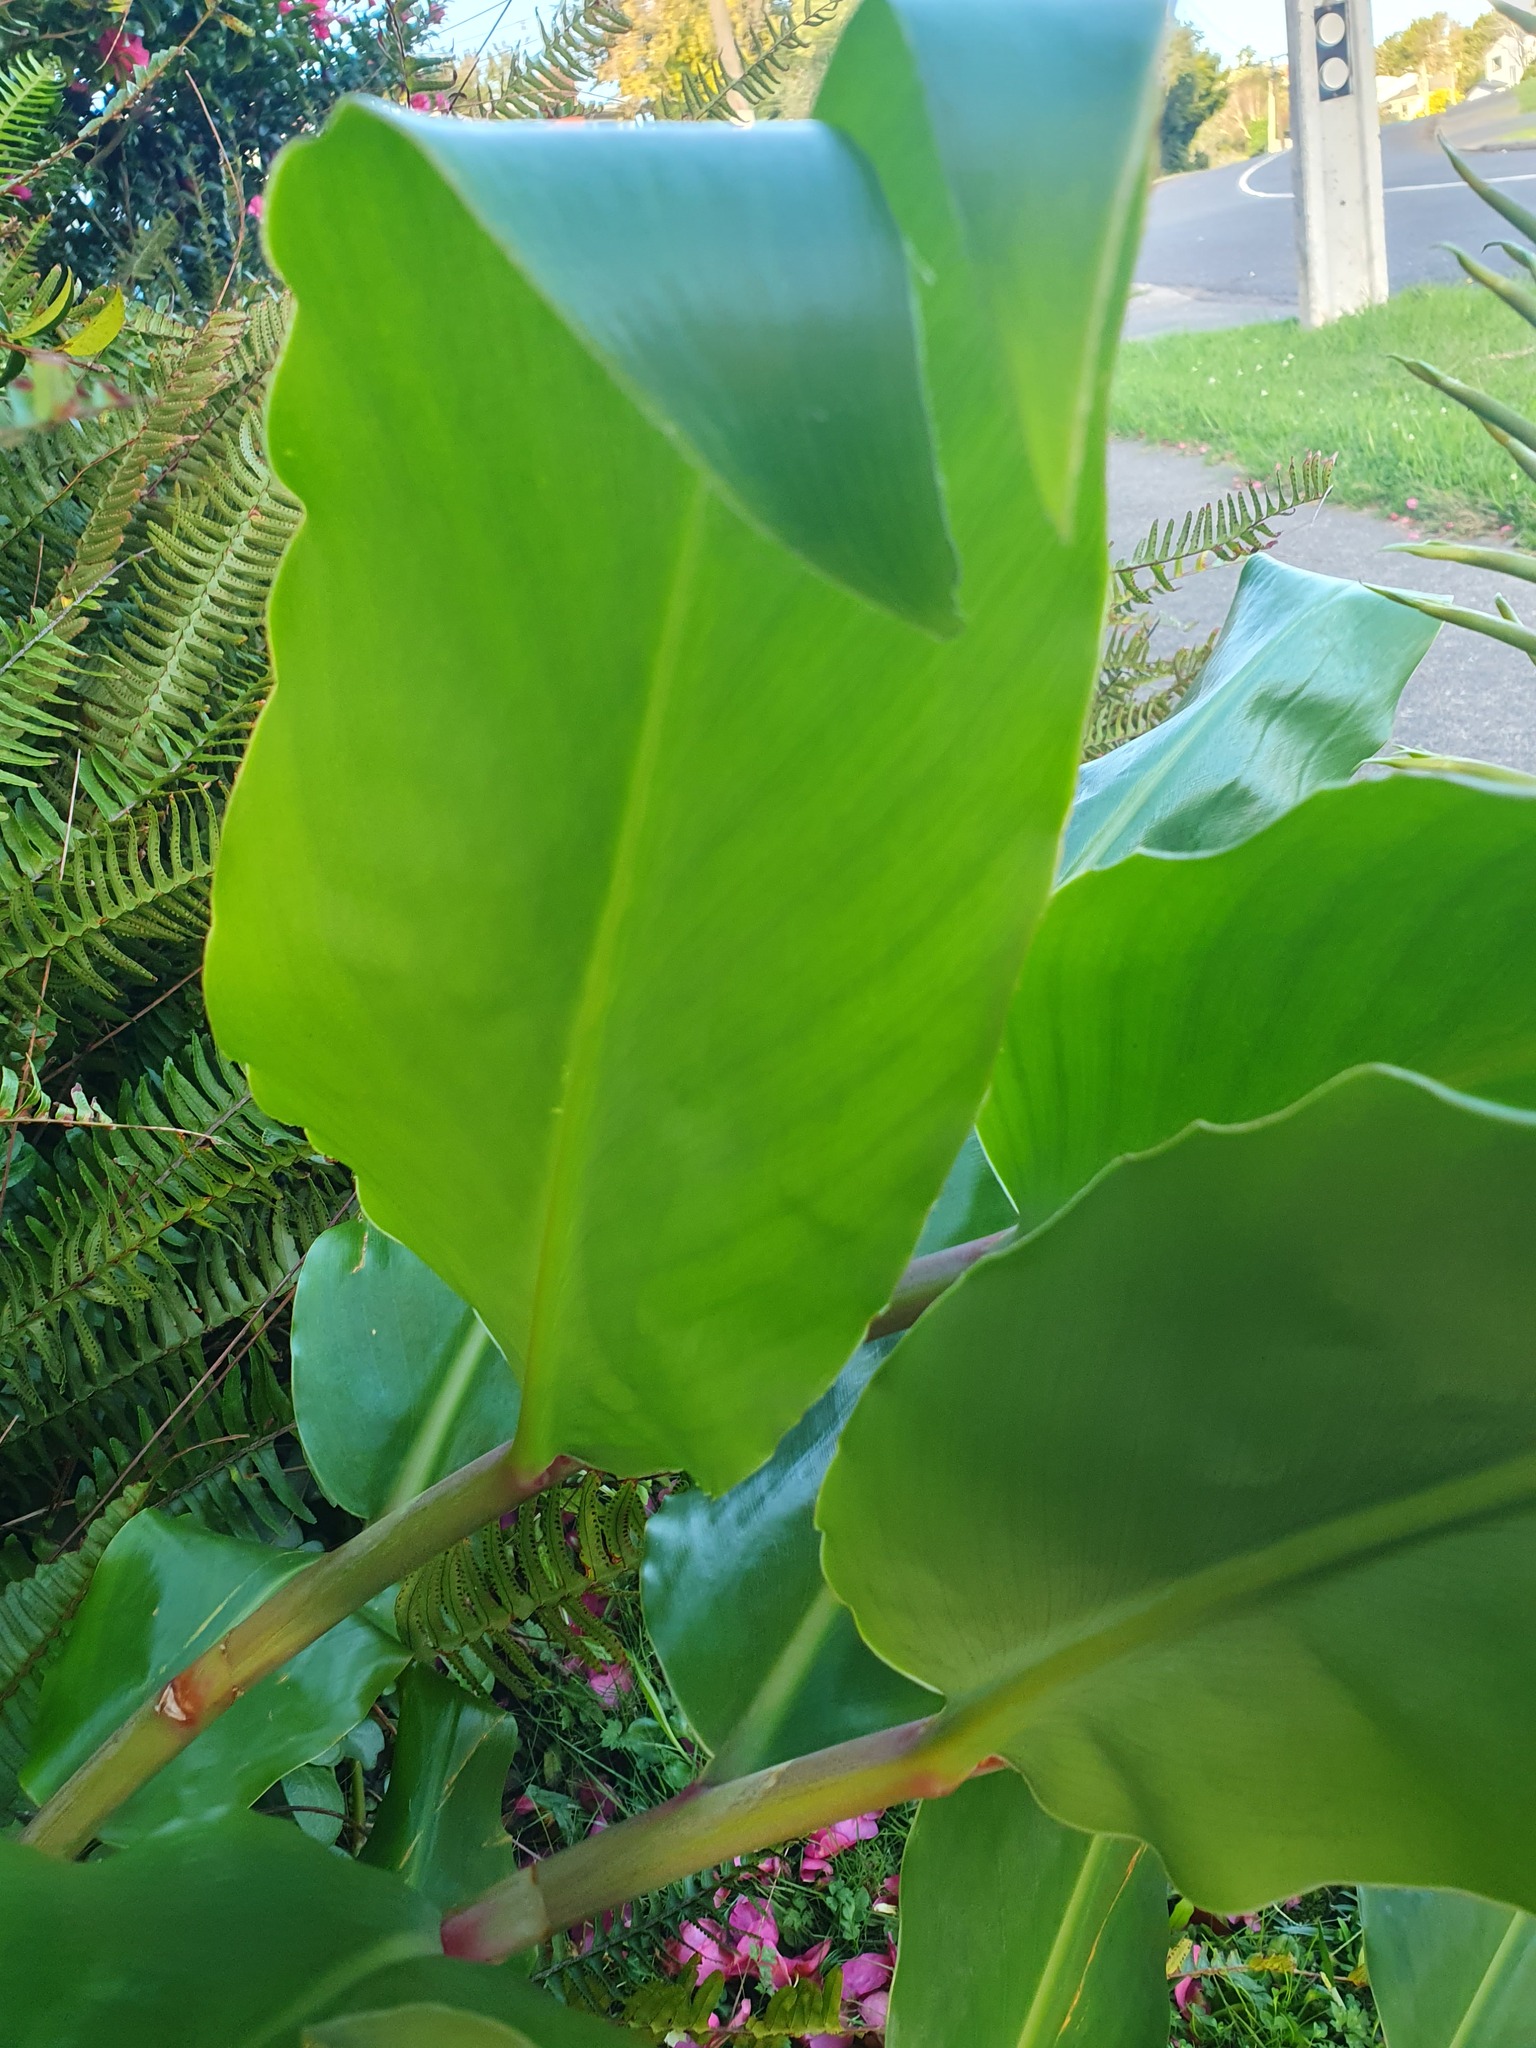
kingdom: Plantae
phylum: Tracheophyta
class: Liliopsida
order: Zingiberales
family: Zingiberaceae
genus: Hedychium
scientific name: Hedychium gardnerianum
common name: Himalayan ginger
